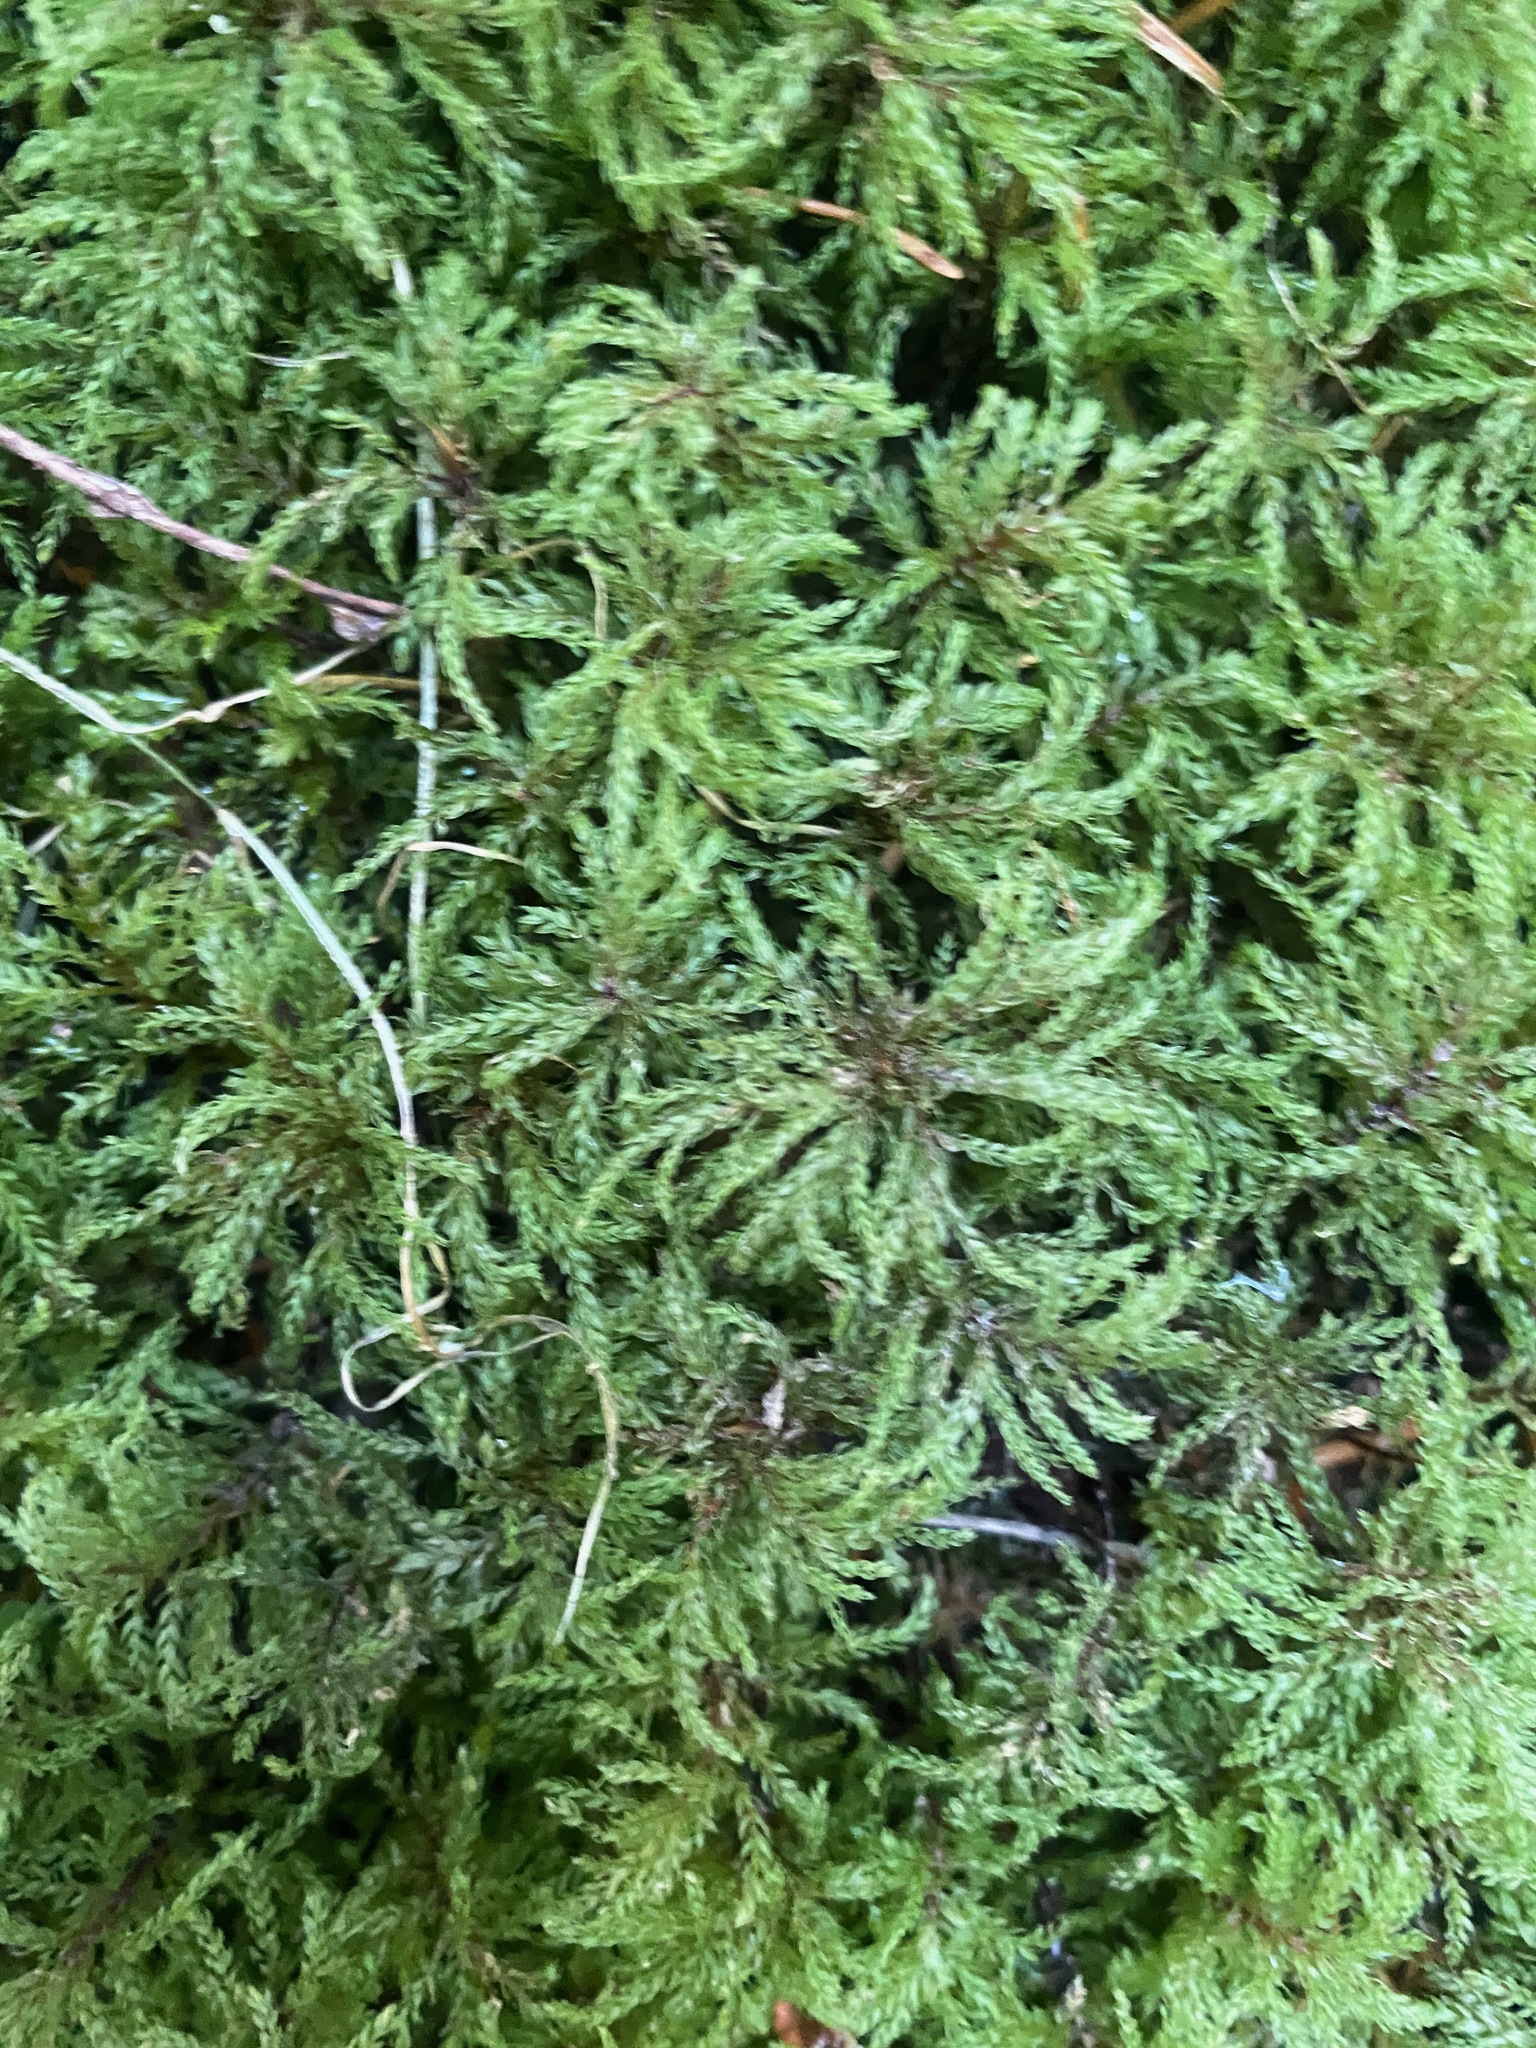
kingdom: Plantae
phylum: Bryophyta
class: Bryopsida
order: Bryales
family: Mniaceae
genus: Leucolepis
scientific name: Leucolepis acanthoneura
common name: Leucolepis umbrella moss
